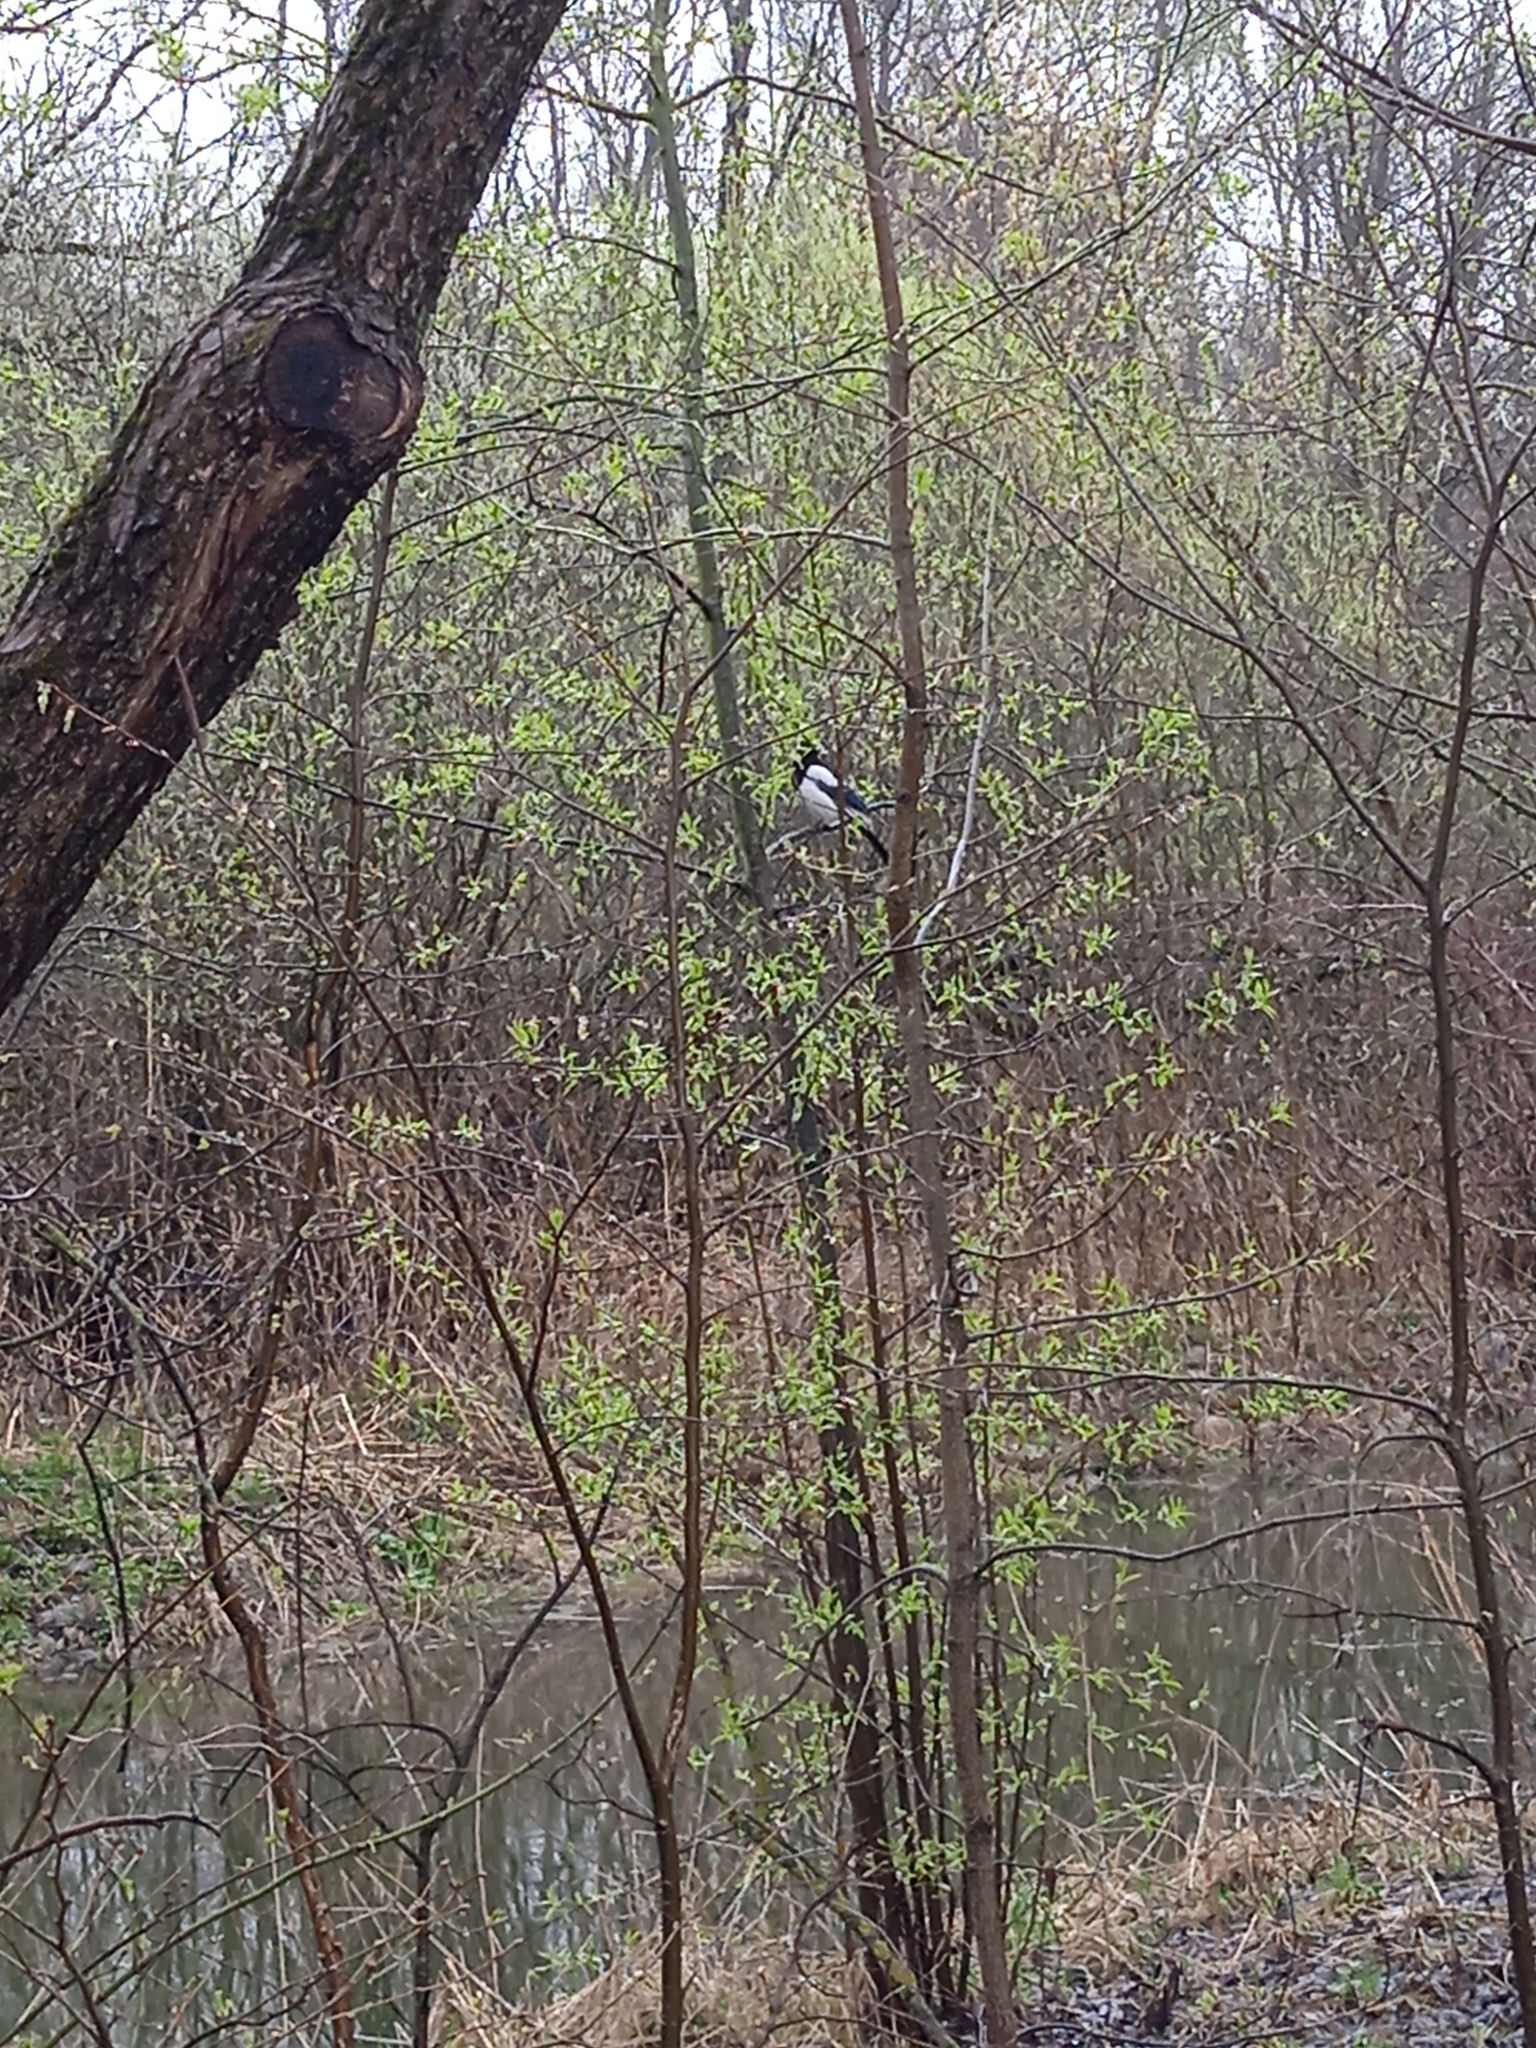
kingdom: Animalia
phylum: Chordata
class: Aves
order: Passeriformes
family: Corvidae
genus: Pica
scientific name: Pica pica
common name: Eurasian magpie
